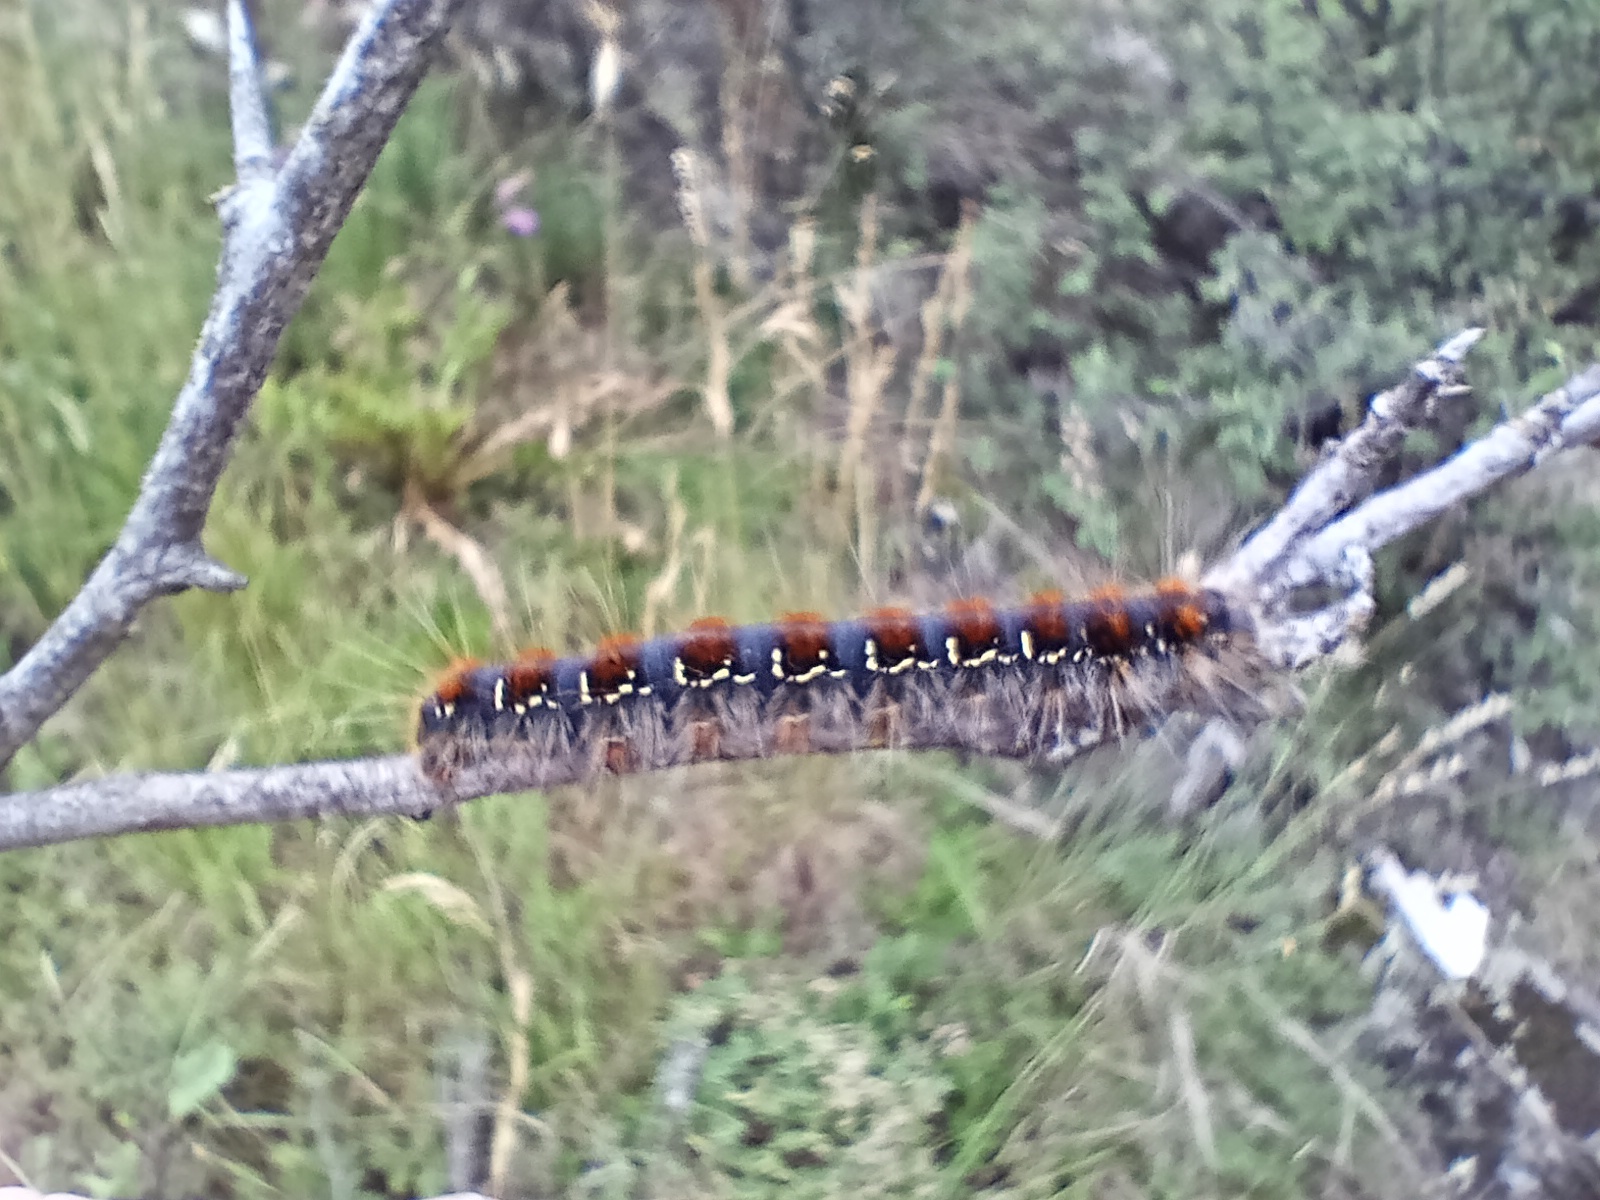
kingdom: Animalia
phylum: Arthropoda
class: Insecta
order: Lepidoptera
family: Lasiocampidae
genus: Eriogaster
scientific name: Eriogaster lanestris
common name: Small eggar
